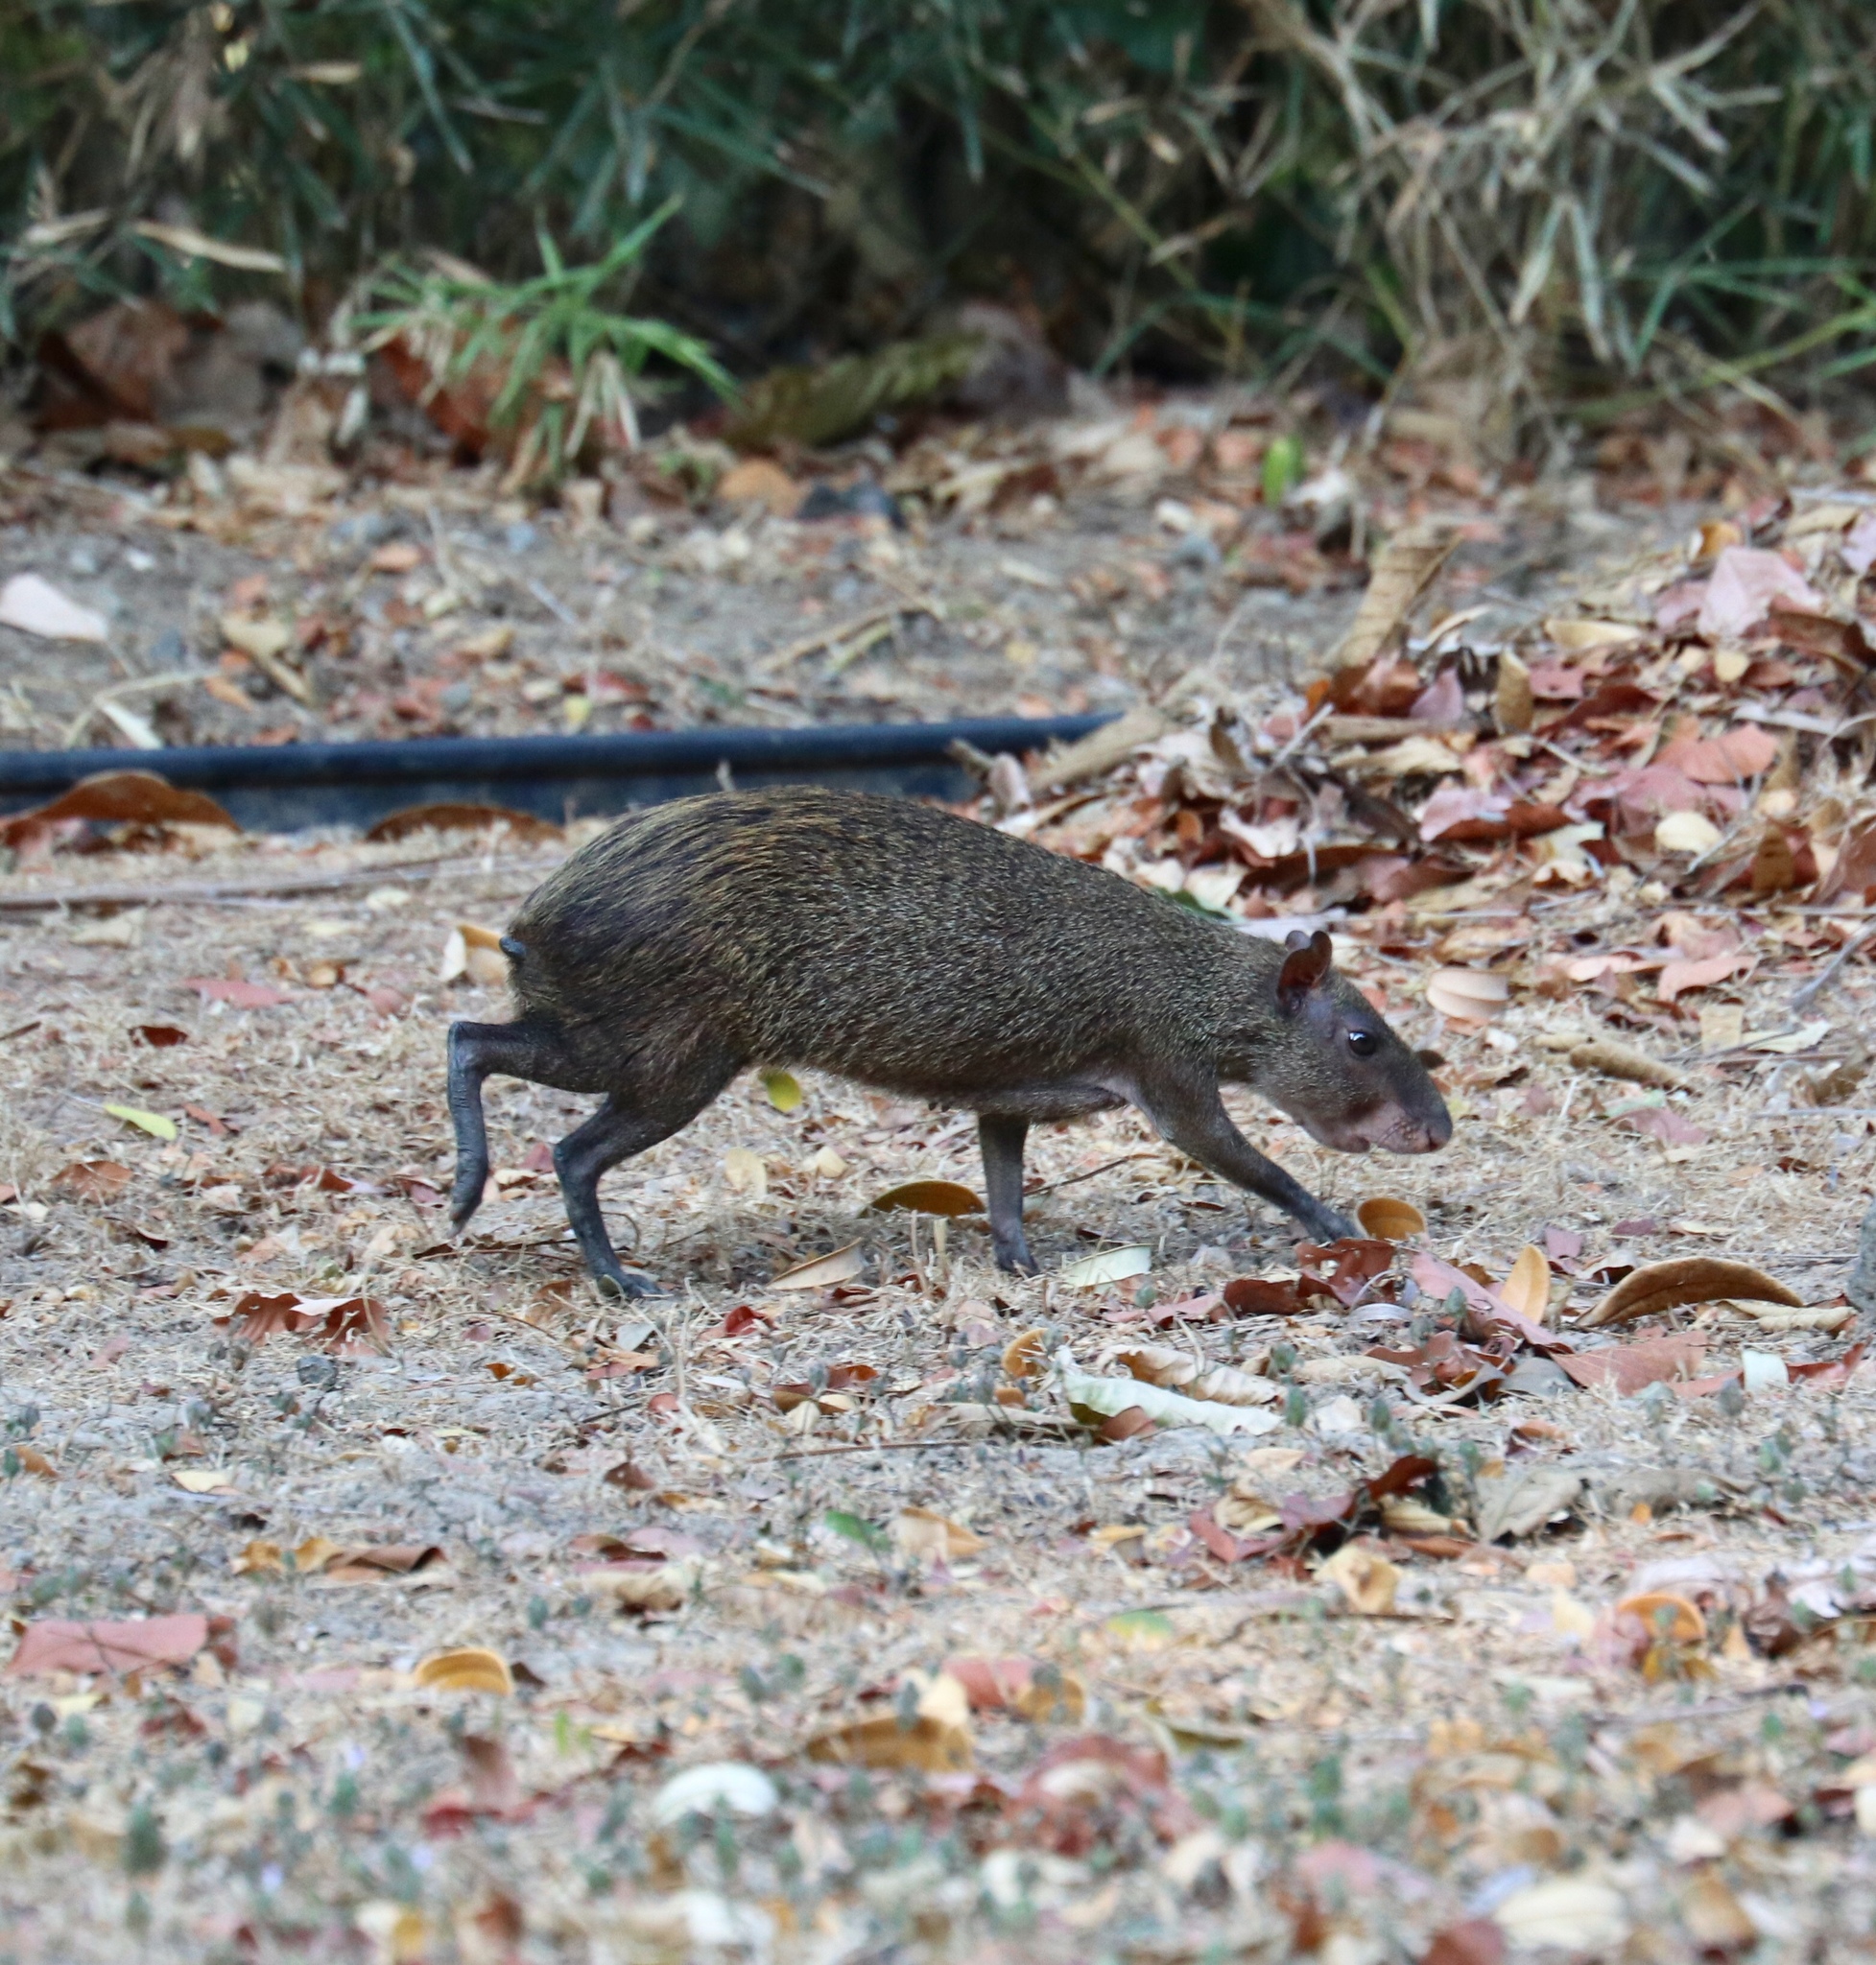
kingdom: Animalia
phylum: Chordata
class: Mammalia
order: Rodentia
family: Dasyproctidae
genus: Dasyprocta
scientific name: Dasyprocta punctata
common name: Central american agouti
